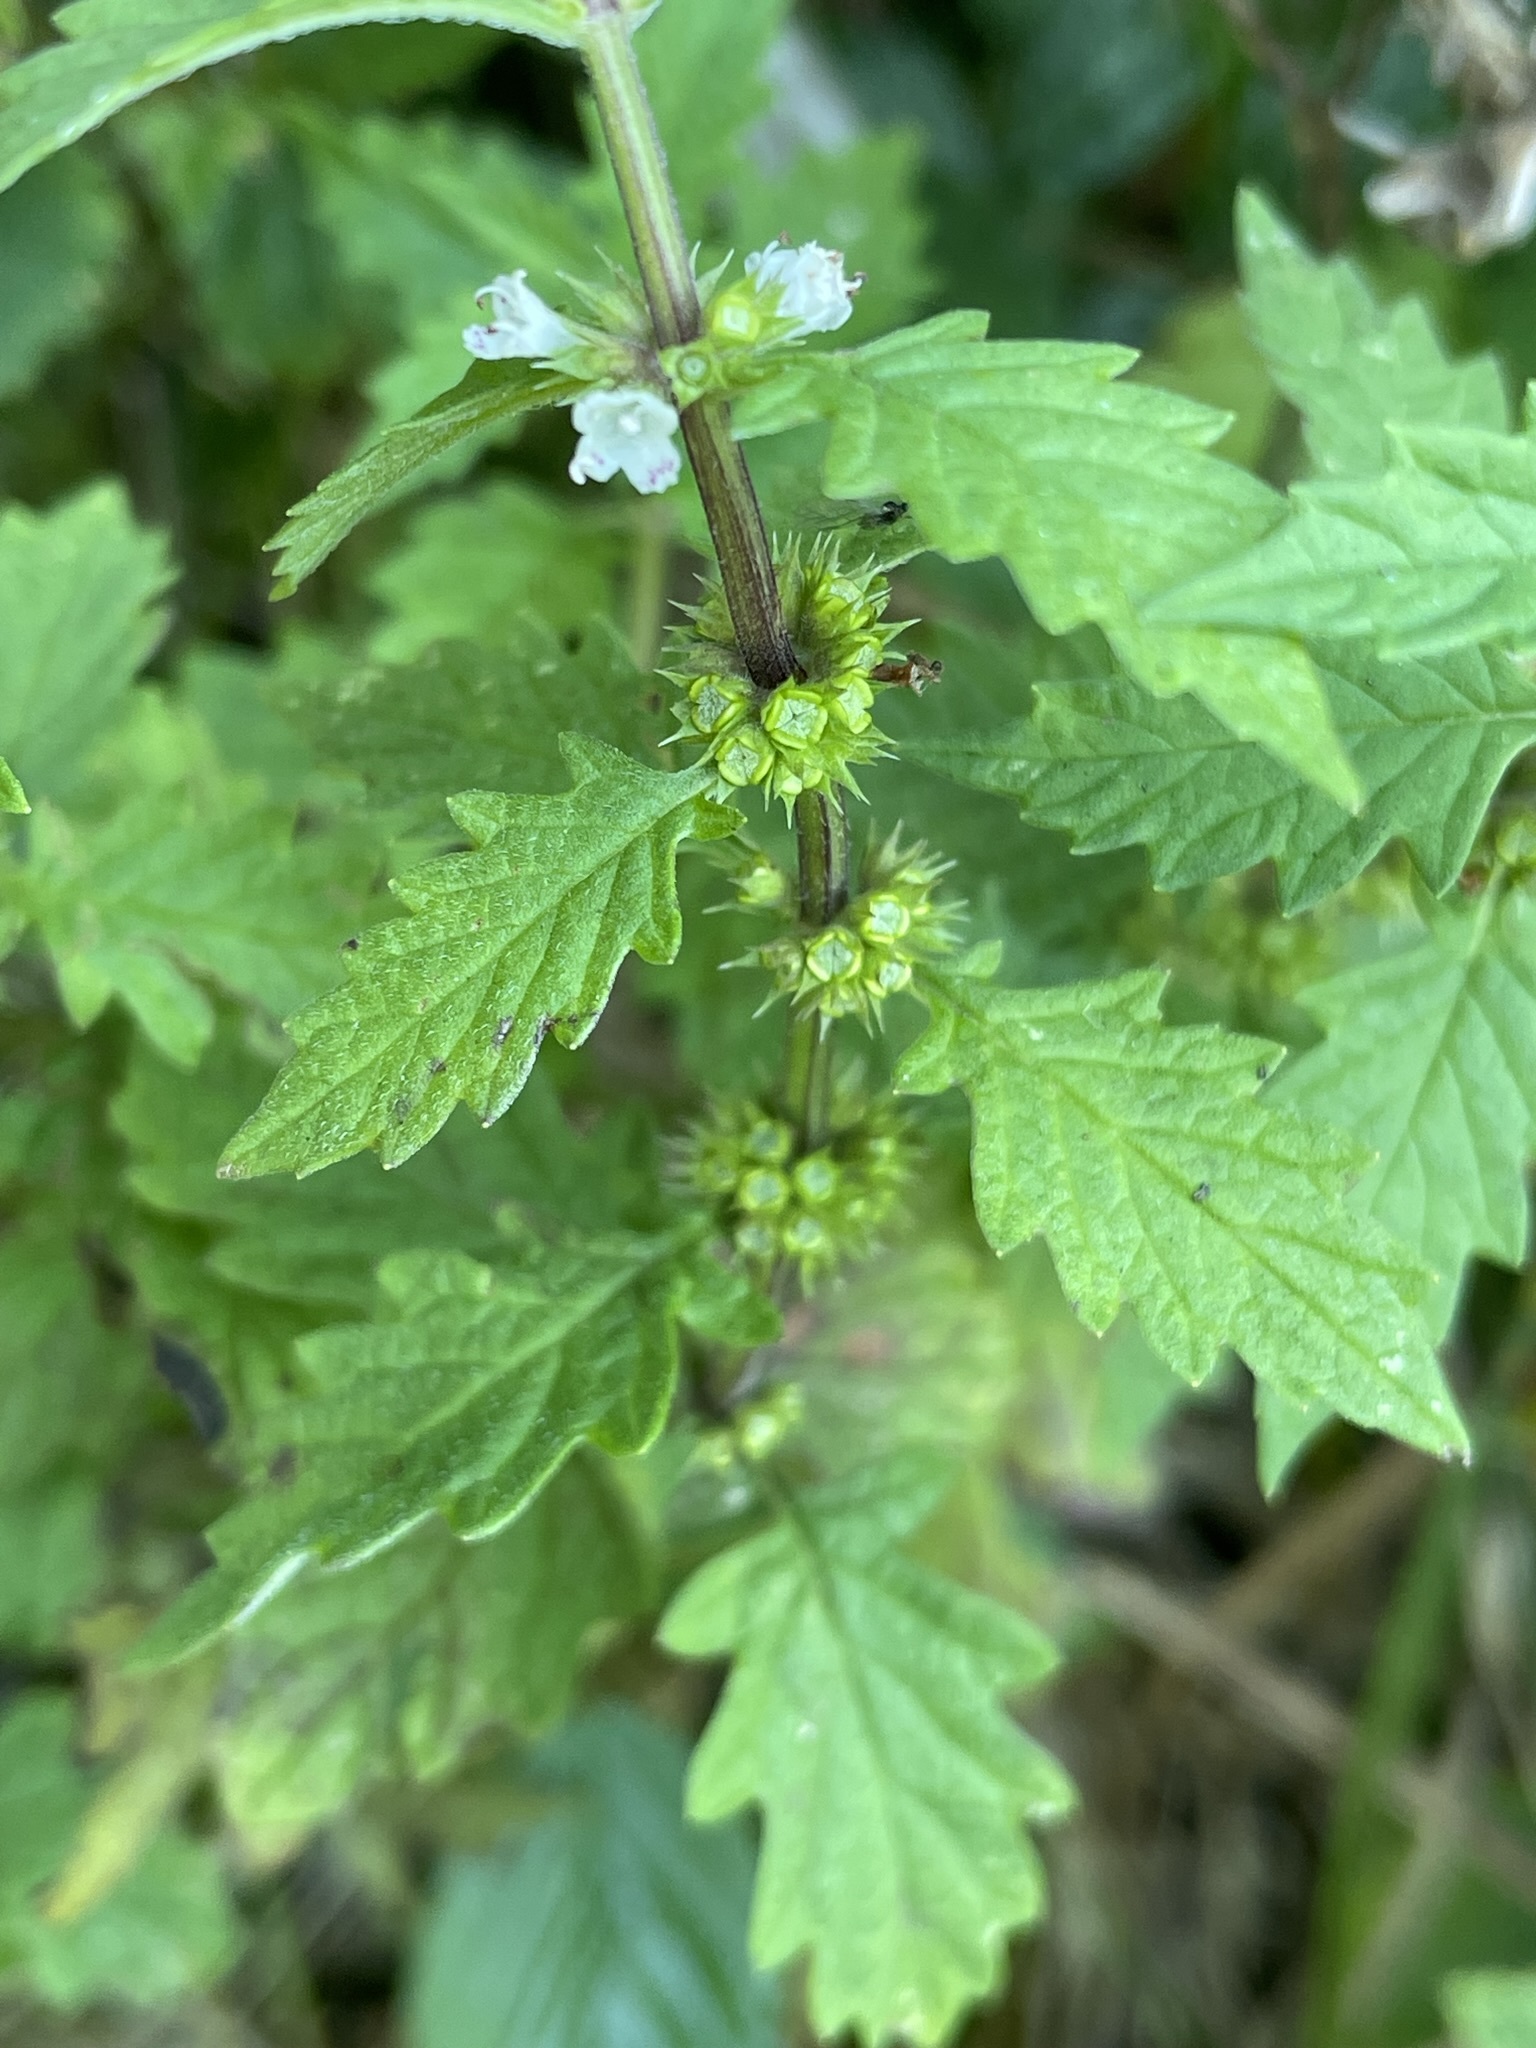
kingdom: Plantae
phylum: Tracheophyta
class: Magnoliopsida
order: Lamiales
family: Lamiaceae
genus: Lycopus
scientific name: Lycopus europaeus
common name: European bugleweed
